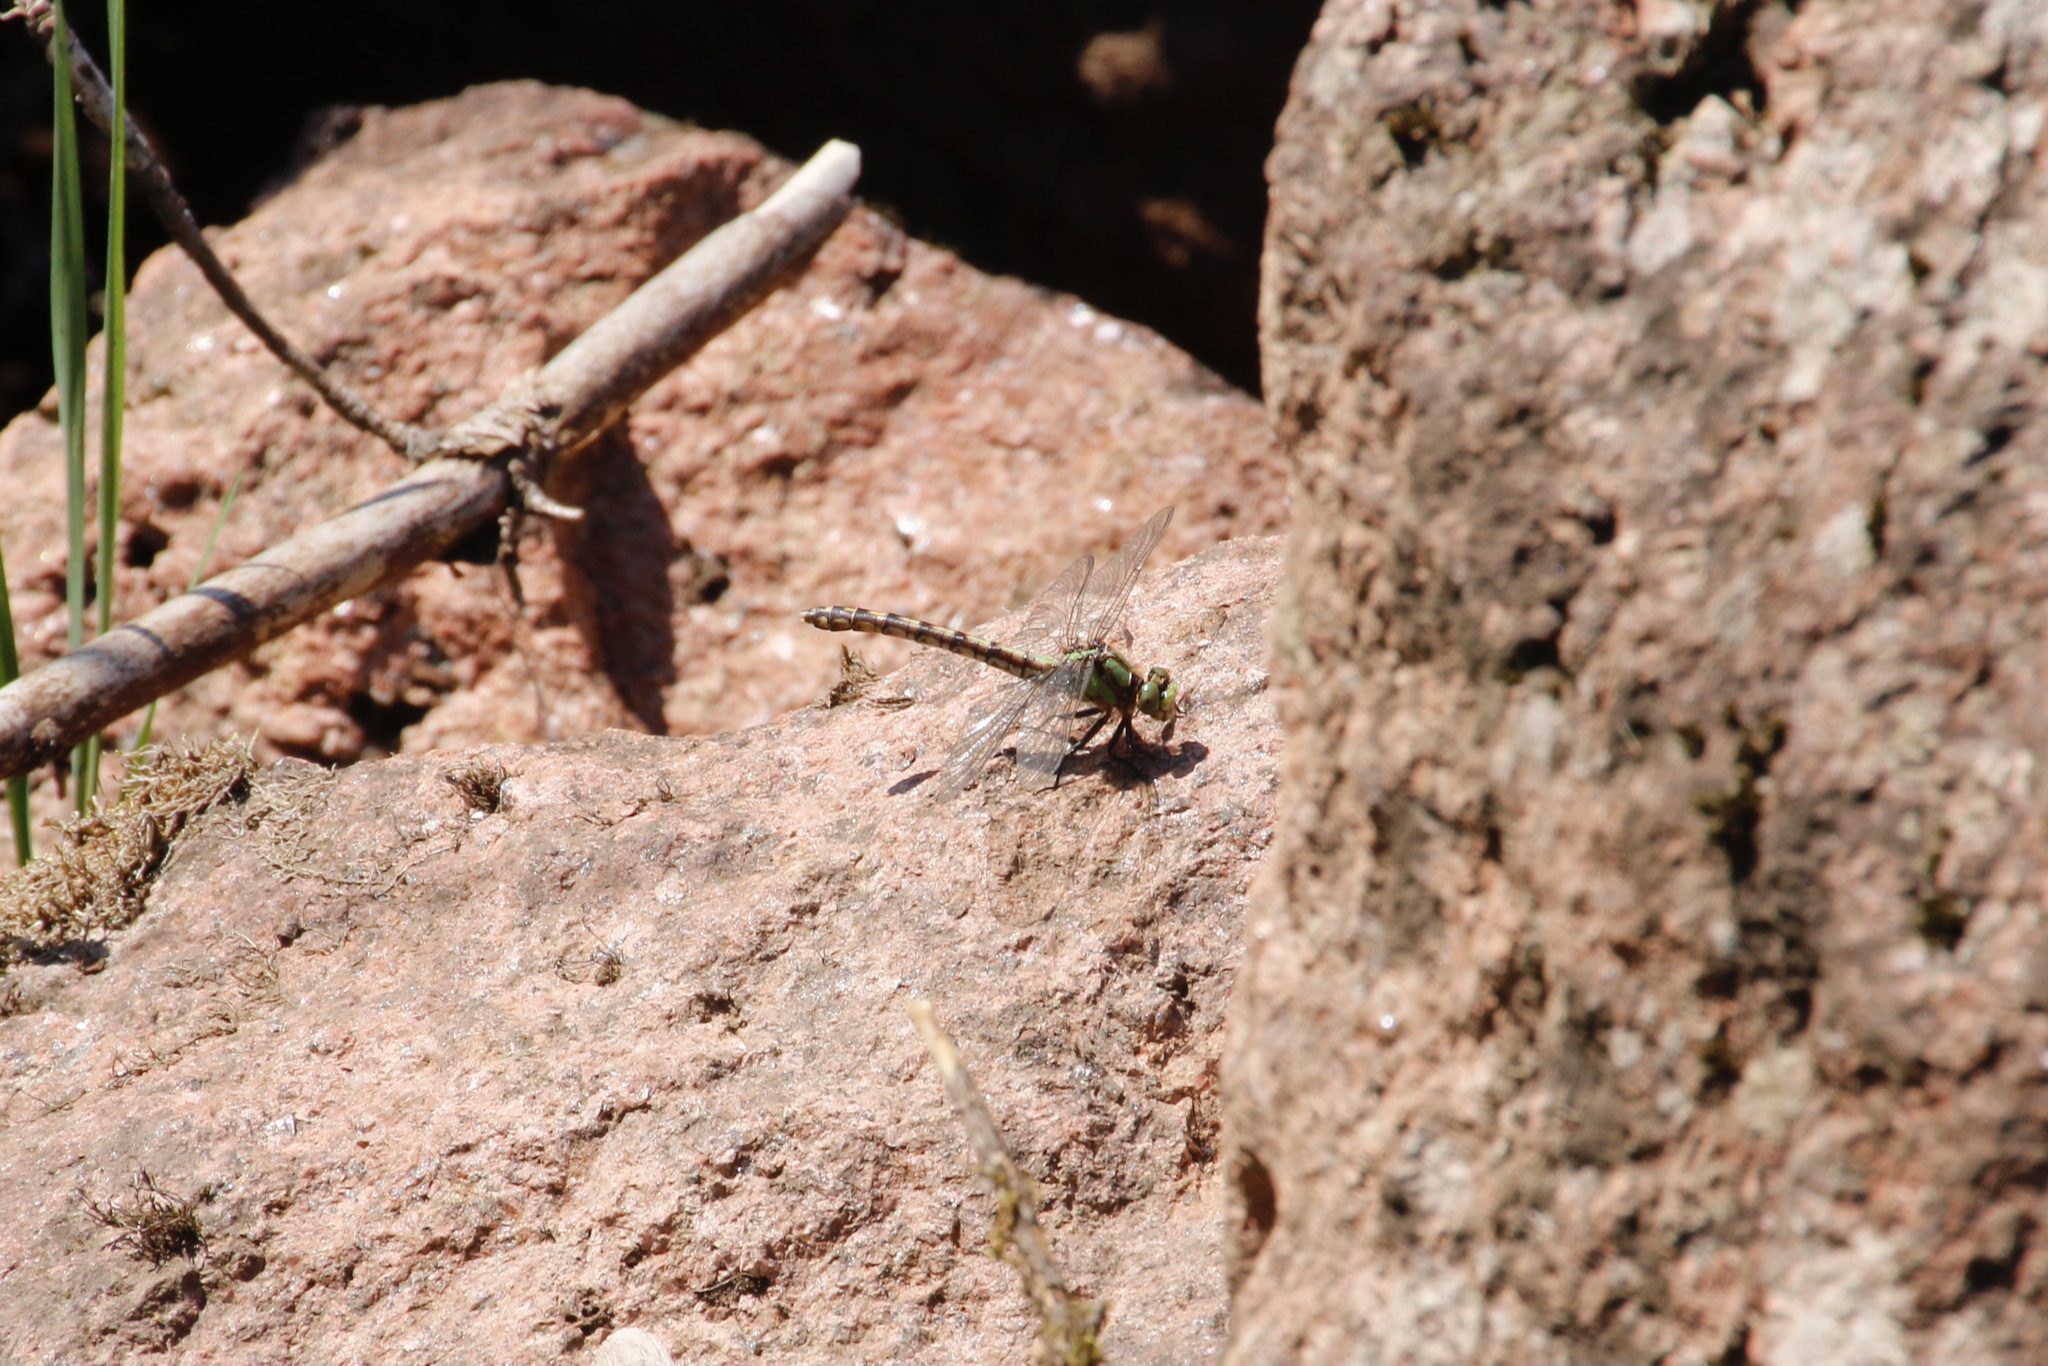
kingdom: Animalia
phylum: Arthropoda
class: Insecta
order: Odonata
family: Gomphidae
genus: Ophiogomphus
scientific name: Ophiogomphus carolus
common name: Riffle snaketail
